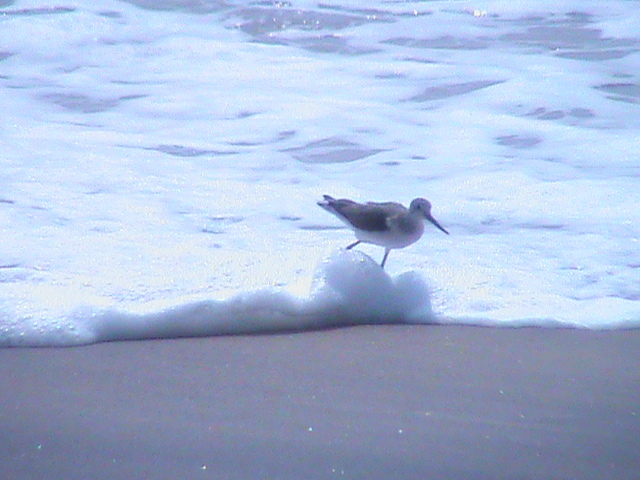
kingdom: Animalia
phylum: Chordata
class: Aves
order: Charadriiformes
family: Scolopacidae
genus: Tringa
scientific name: Tringa nebularia
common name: Common greenshank
